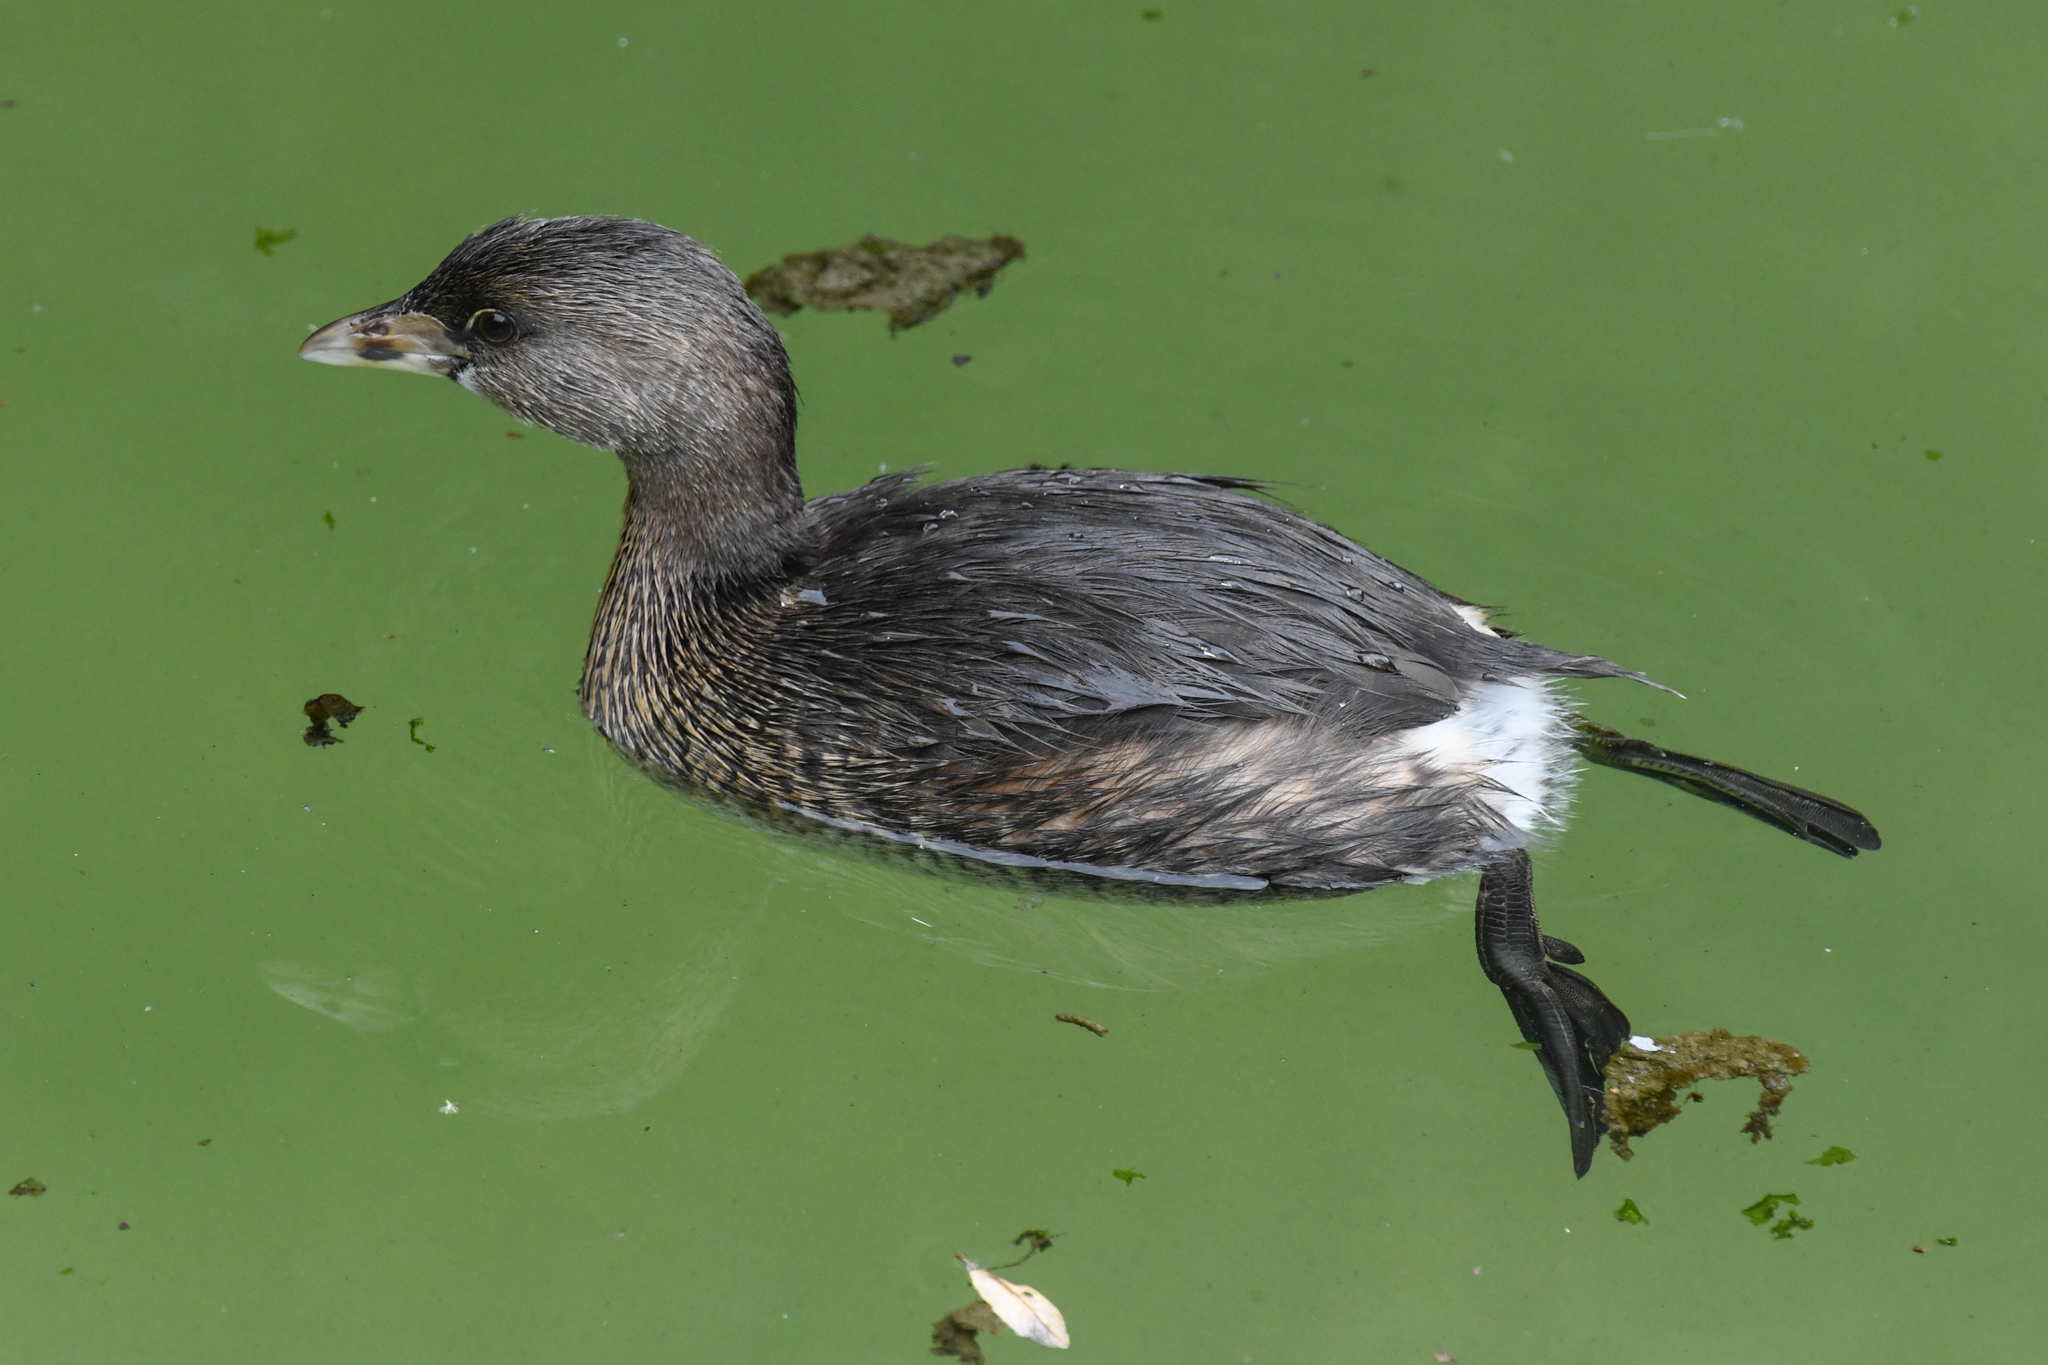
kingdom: Animalia
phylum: Chordata
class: Aves
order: Podicipediformes
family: Podicipedidae
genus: Podilymbus
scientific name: Podilymbus podiceps
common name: Pied-billed grebe
